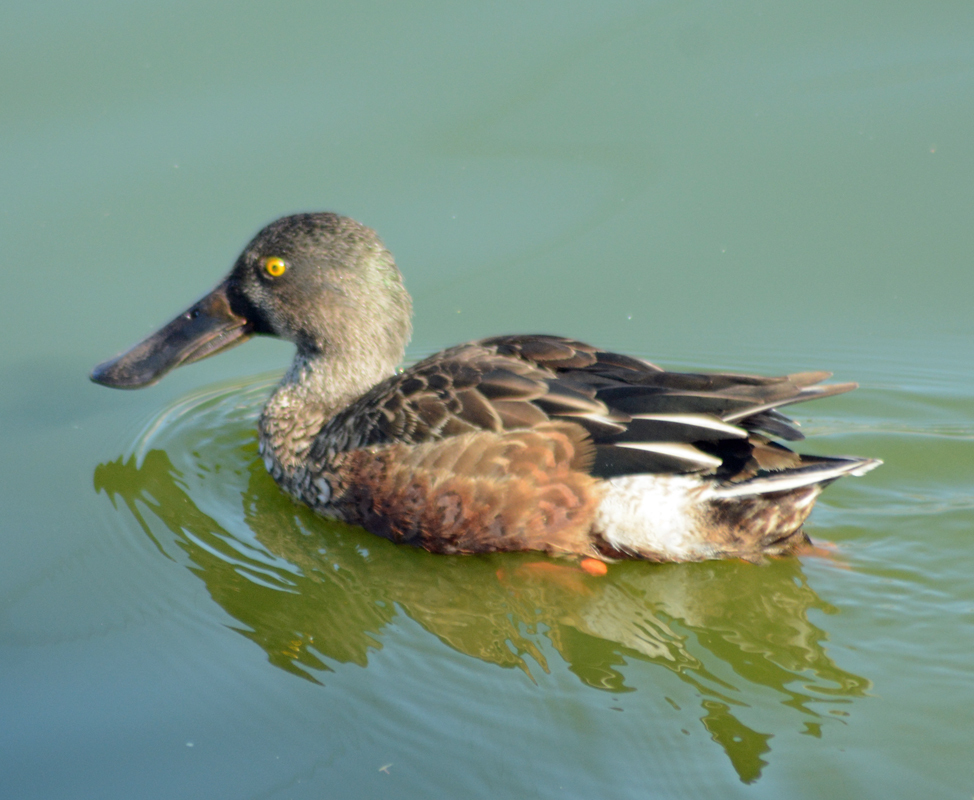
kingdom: Animalia
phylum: Chordata
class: Aves
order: Anseriformes
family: Anatidae
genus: Spatula
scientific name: Spatula clypeata
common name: Northern shoveler
